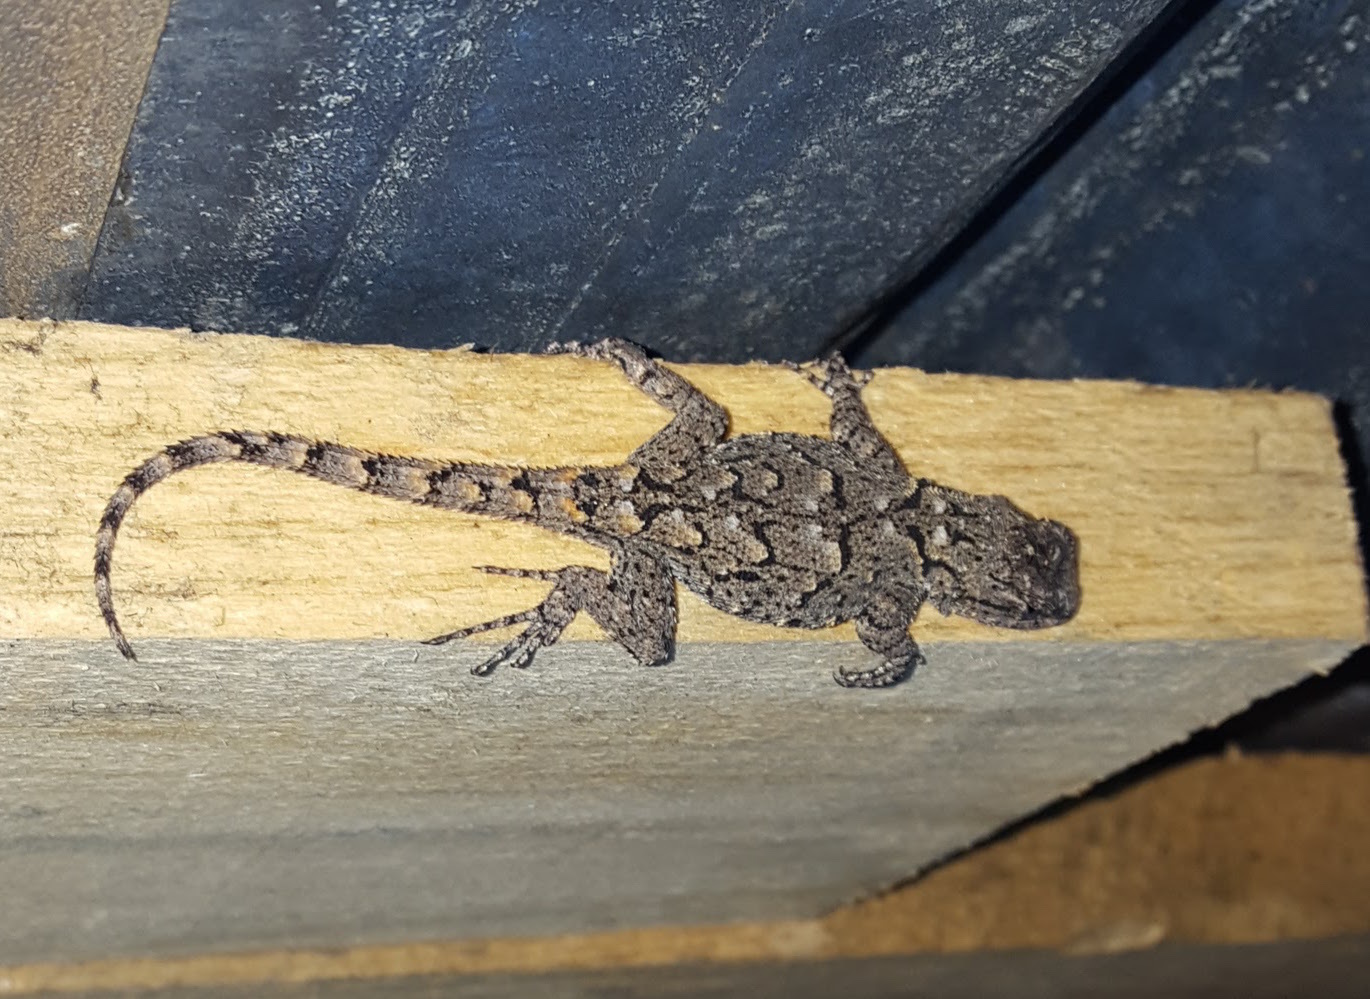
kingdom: Animalia
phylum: Chordata
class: Squamata
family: Phrynosomatidae
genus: Sceloporus
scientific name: Sceloporus grammicus
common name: Mesquite lizard
